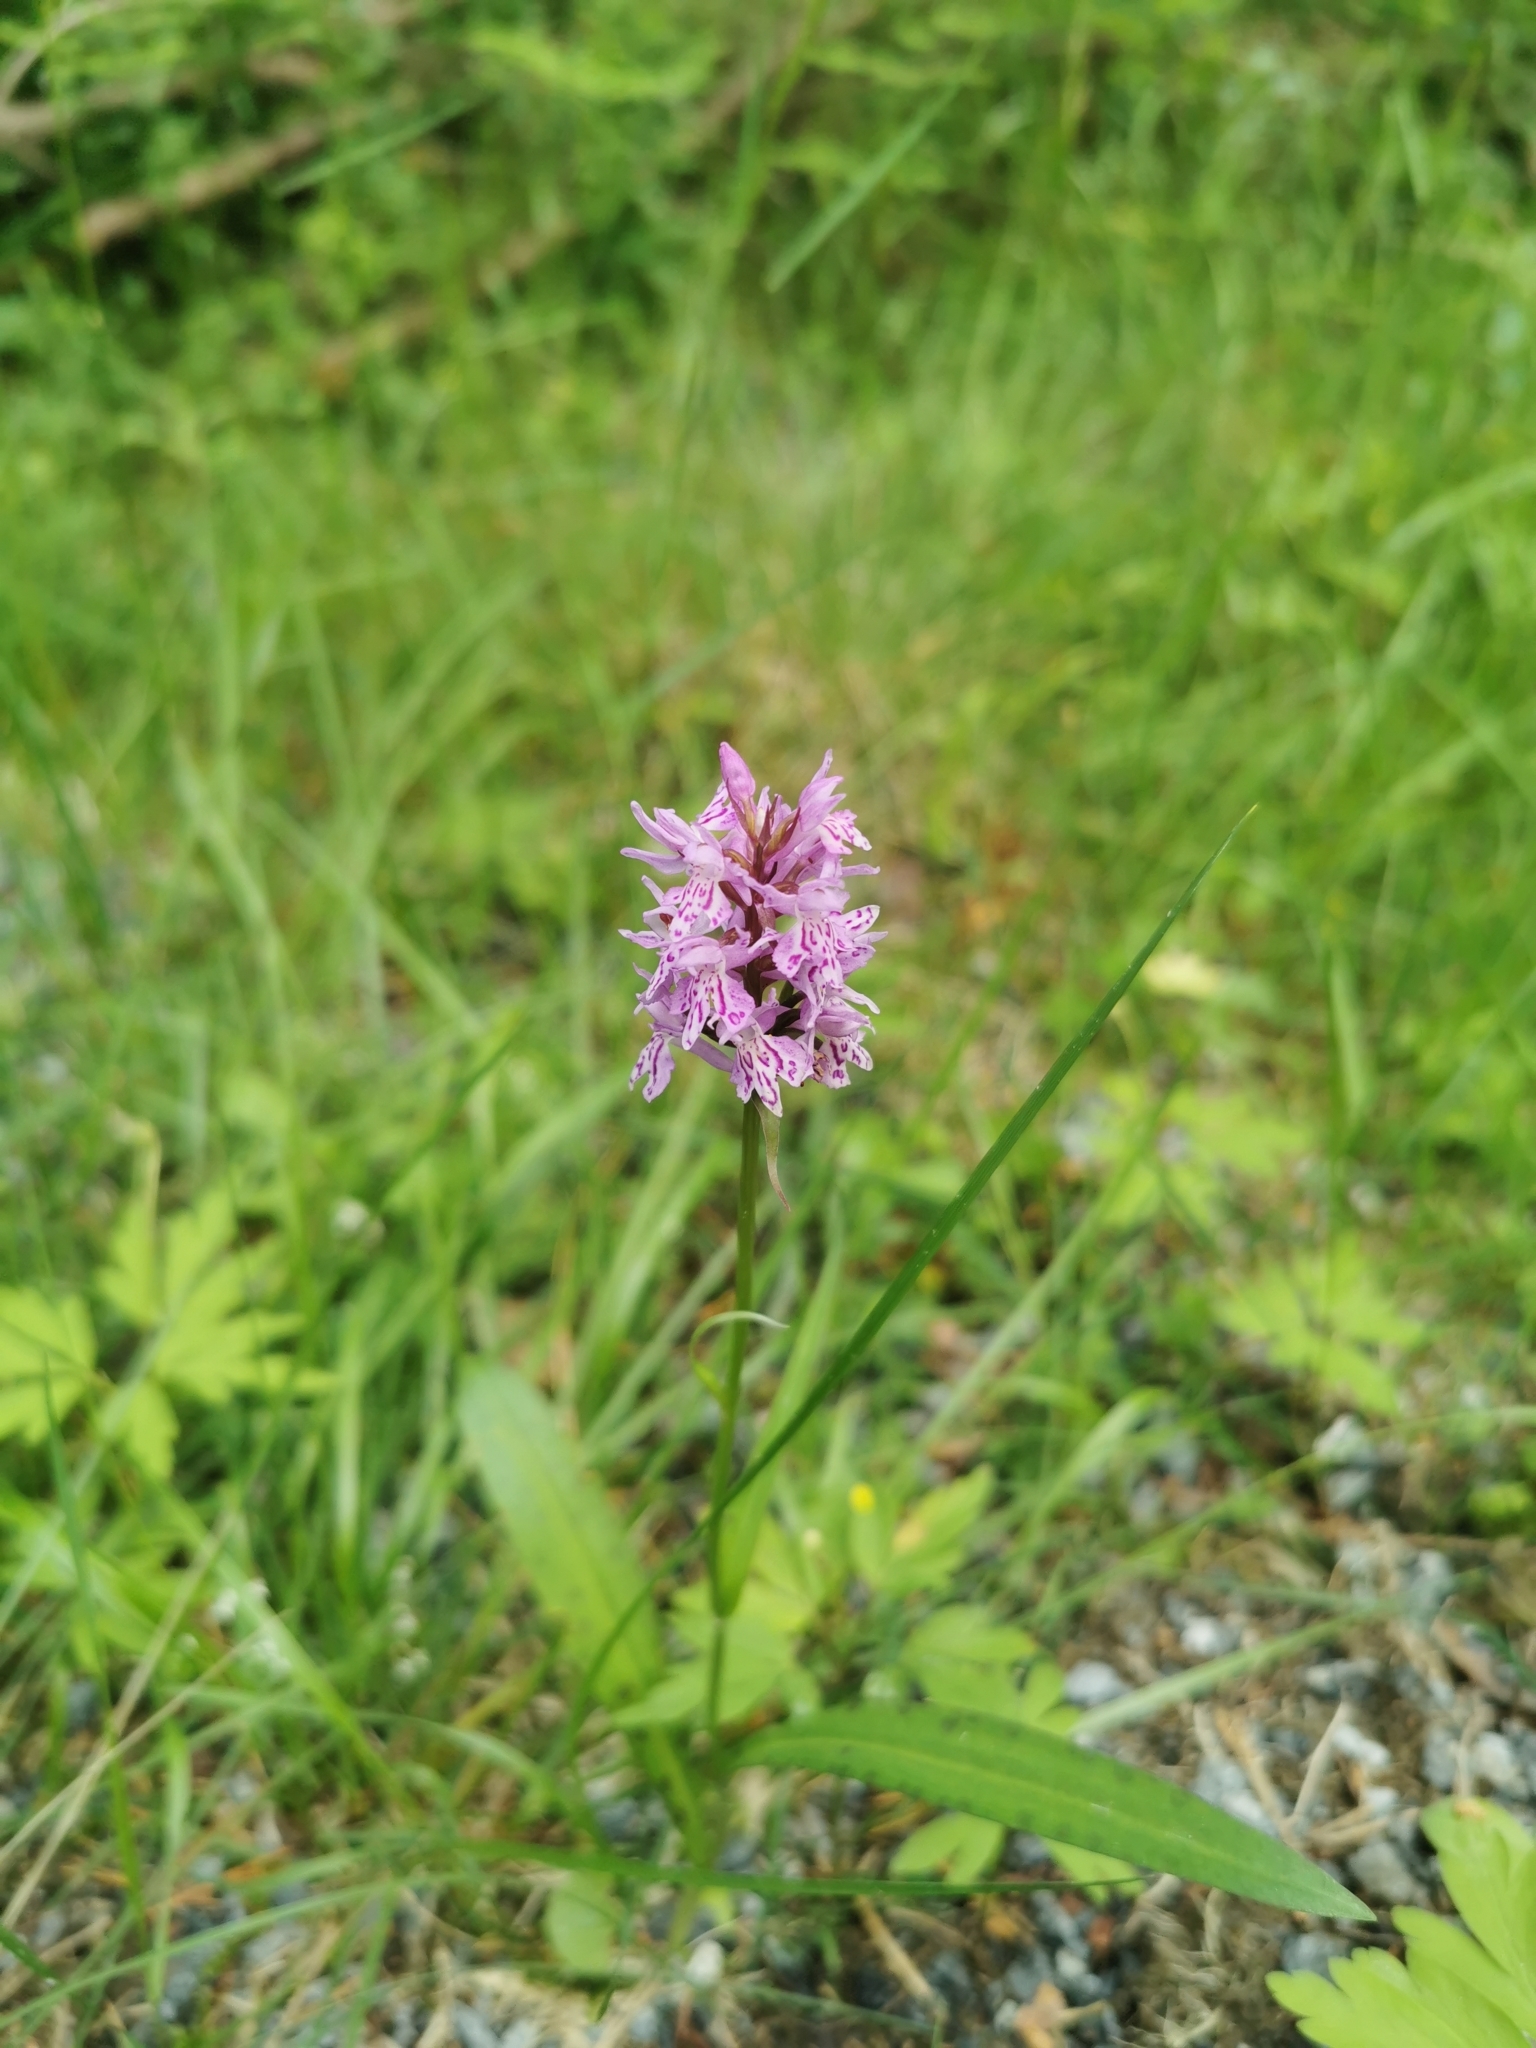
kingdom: Plantae
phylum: Tracheophyta
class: Liliopsida
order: Asparagales
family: Orchidaceae
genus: Dactylorhiza
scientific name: Dactylorhiza maculata
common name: Heath spotted-orchid
